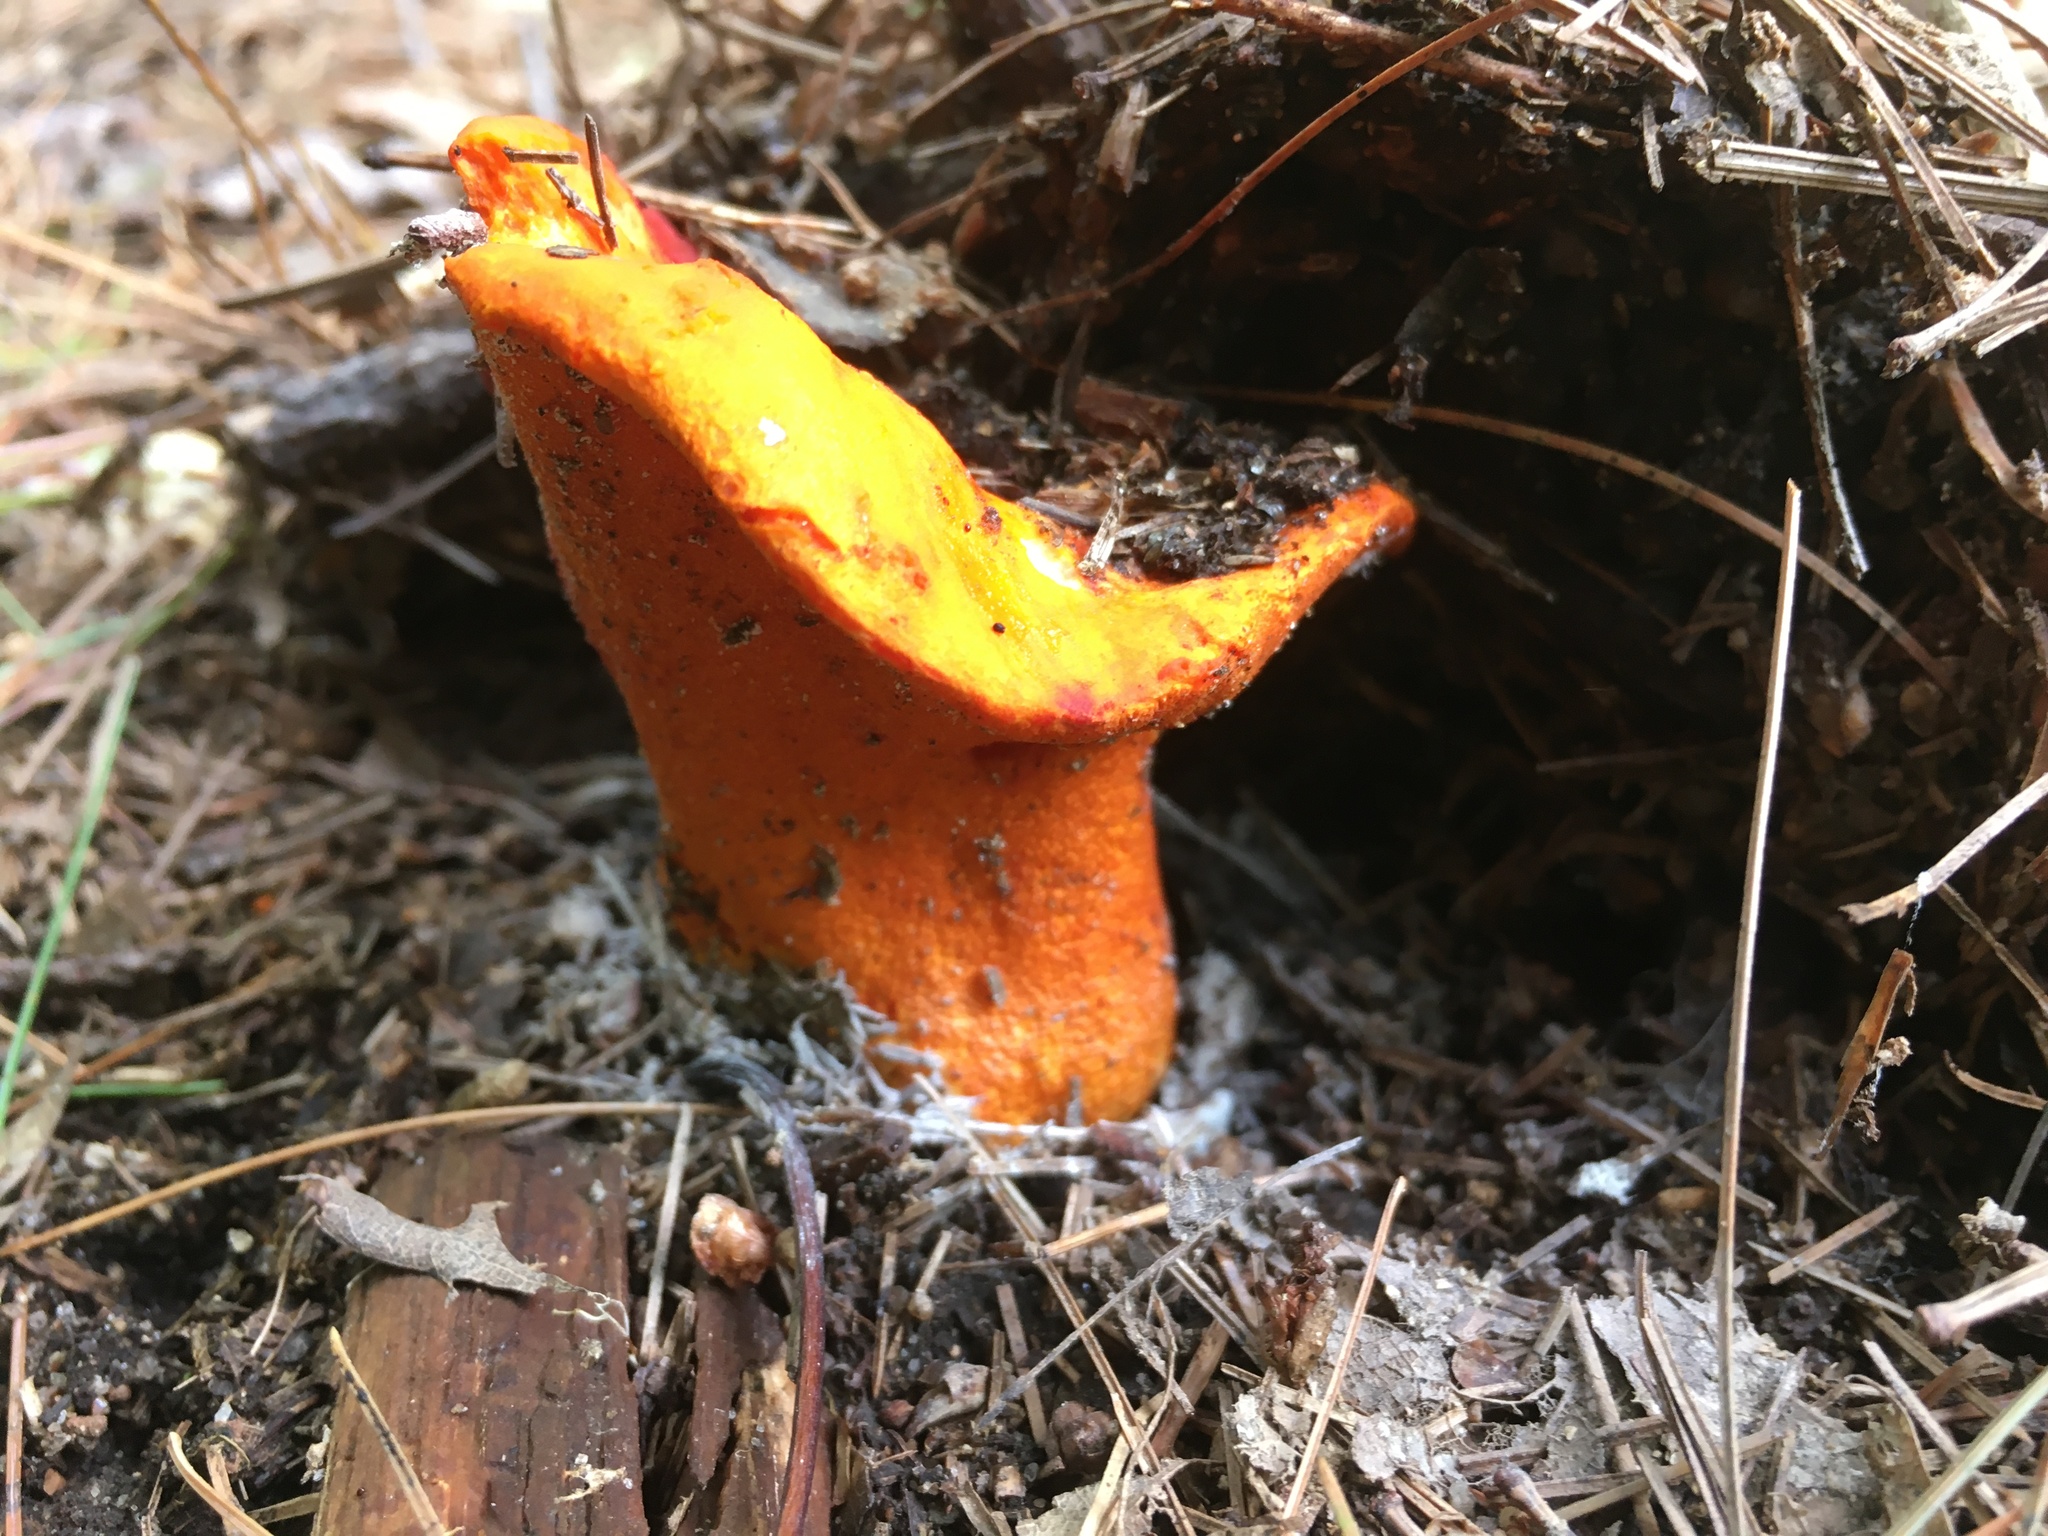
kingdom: Fungi
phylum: Ascomycota
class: Sordariomycetes
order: Hypocreales
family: Hypocreaceae
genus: Hypomyces
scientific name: Hypomyces lactifluorum
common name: Lobster mushroom
